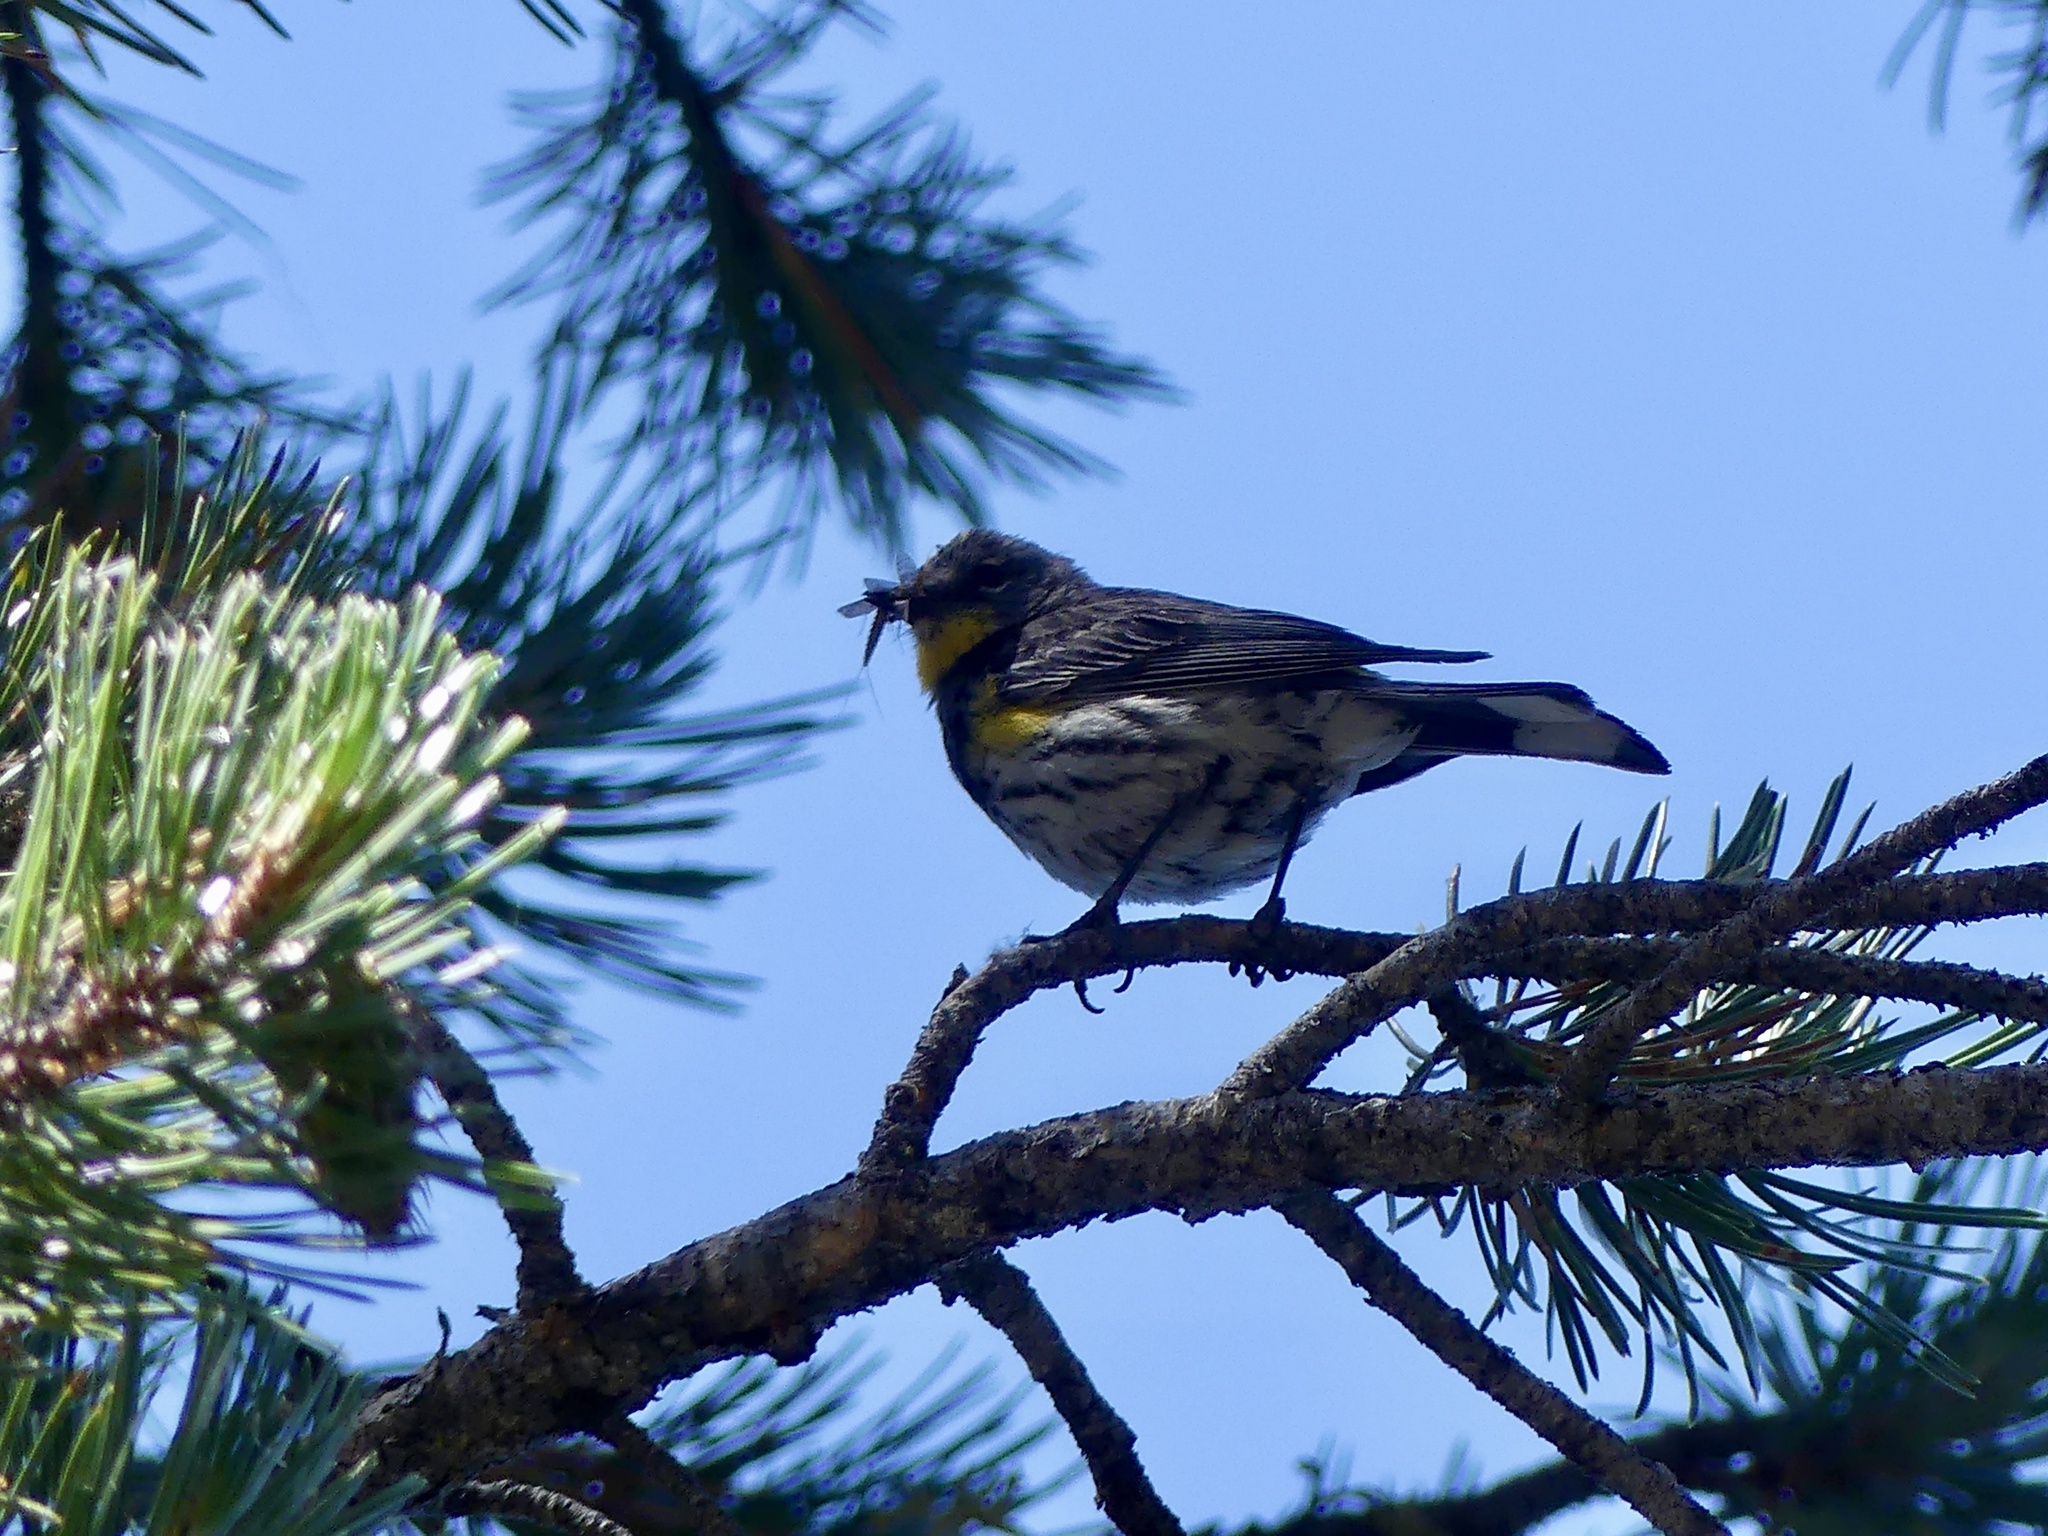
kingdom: Animalia
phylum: Chordata
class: Aves
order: Passeriformes
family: Parulidae
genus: Setophaga
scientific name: Setophaga coronata
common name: Myrtle warbler
